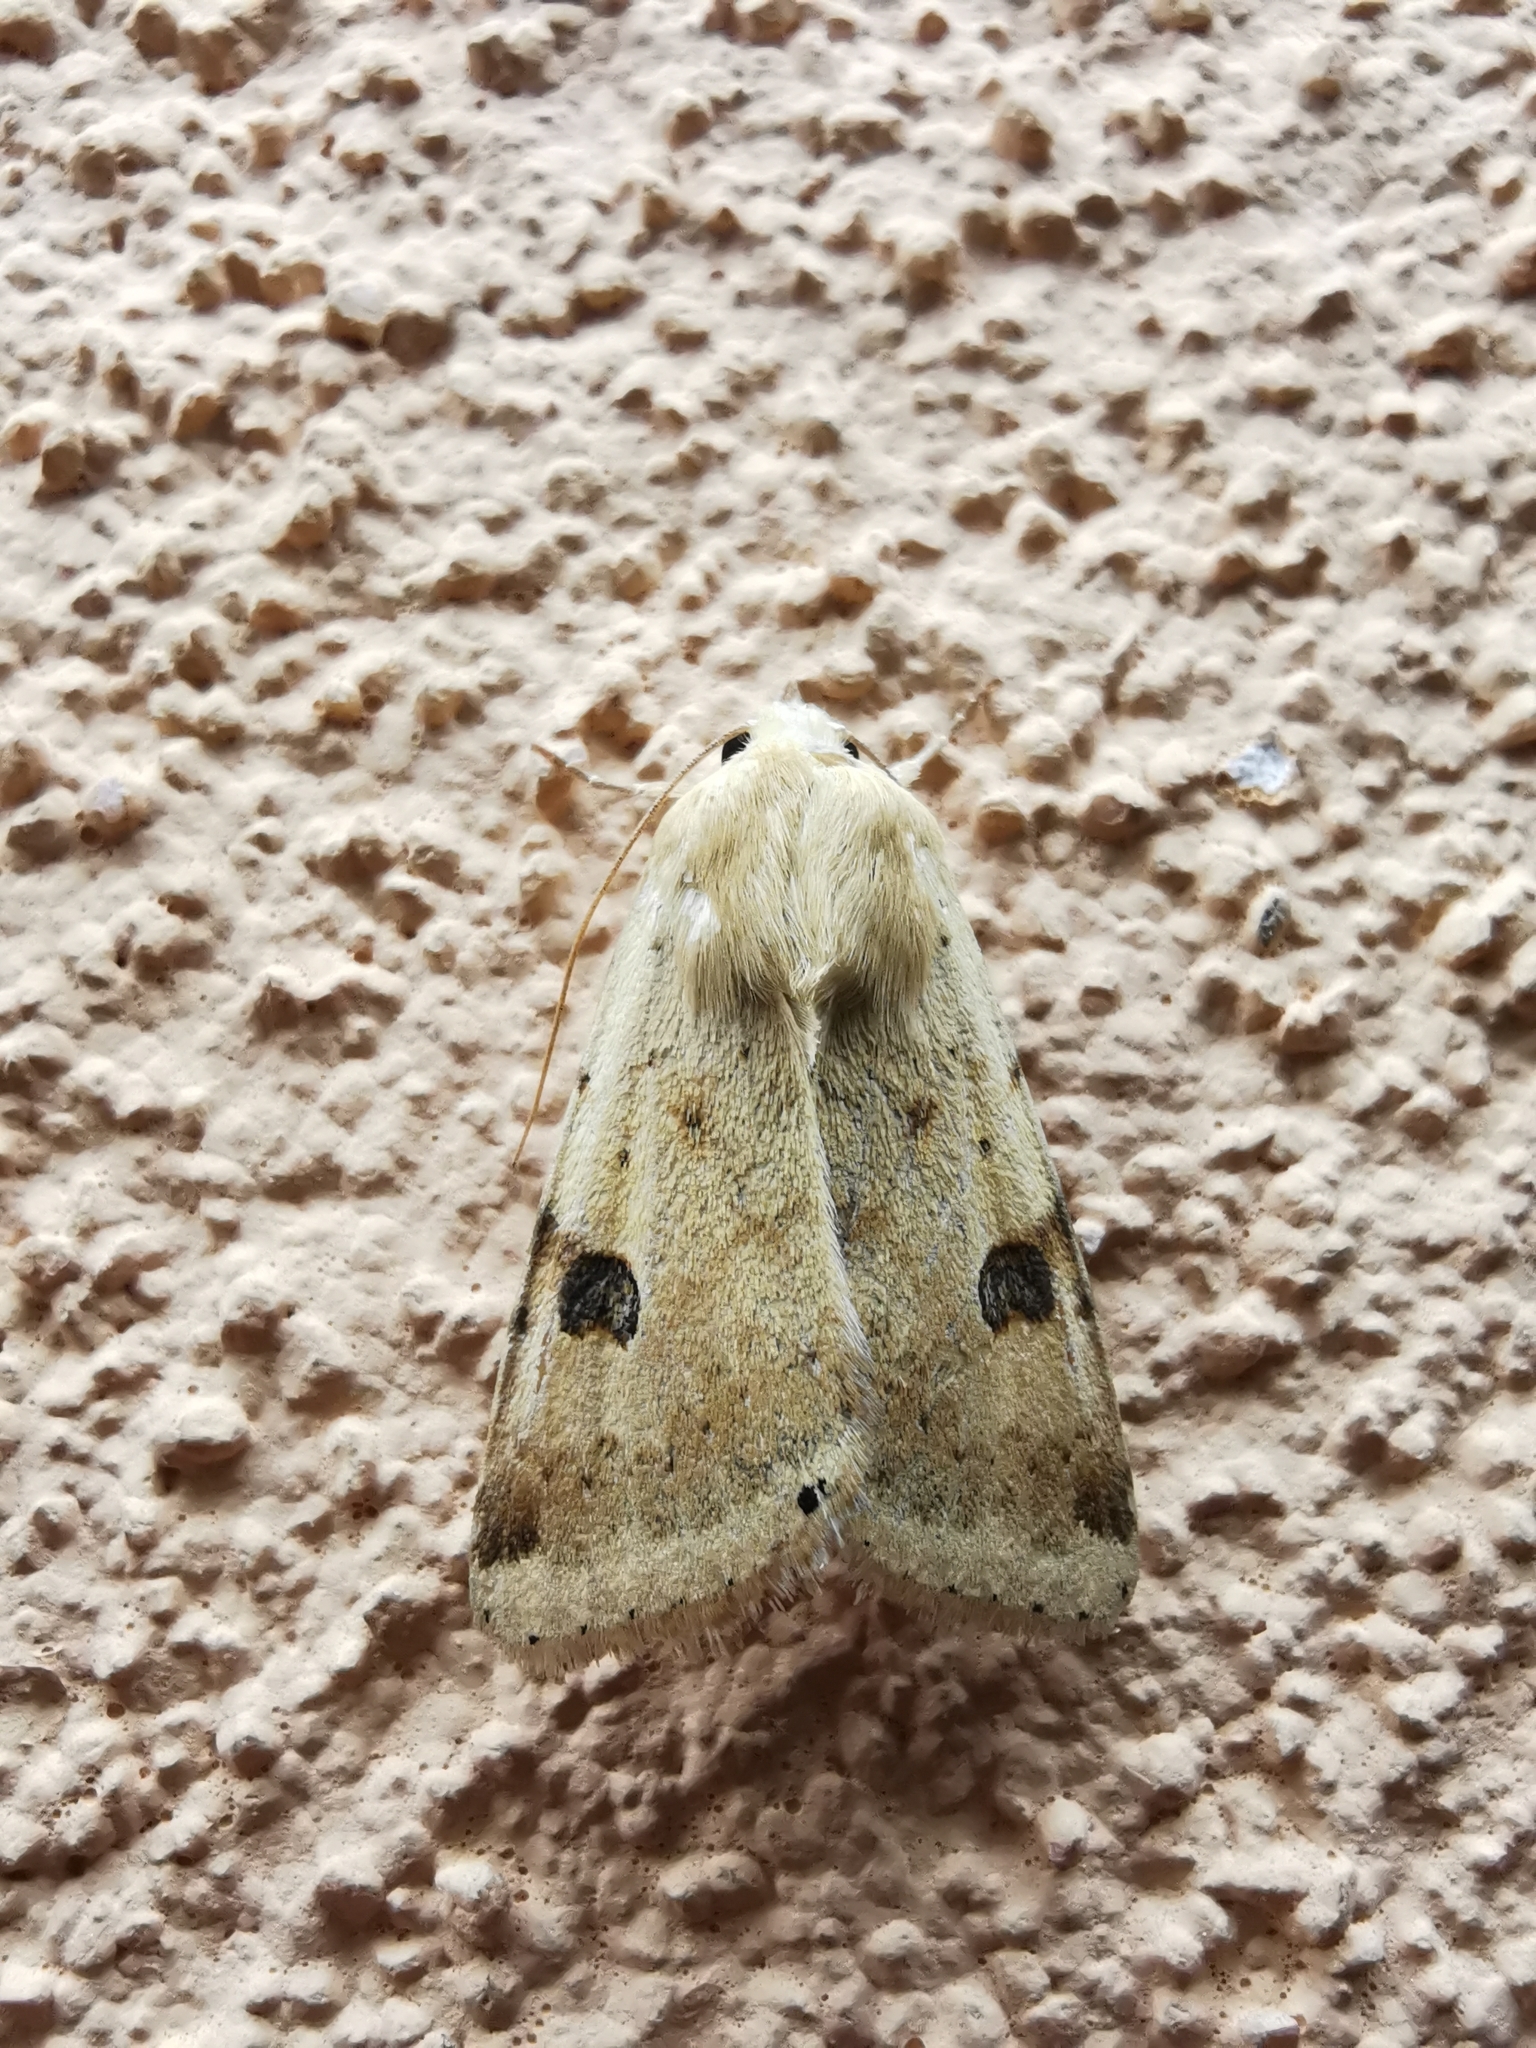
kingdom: Animalia
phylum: Arthropoda
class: Insecta
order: Lepidoptera
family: Noctuidae
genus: Heliothis
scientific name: Heliothis peltigera
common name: Bordered straw
